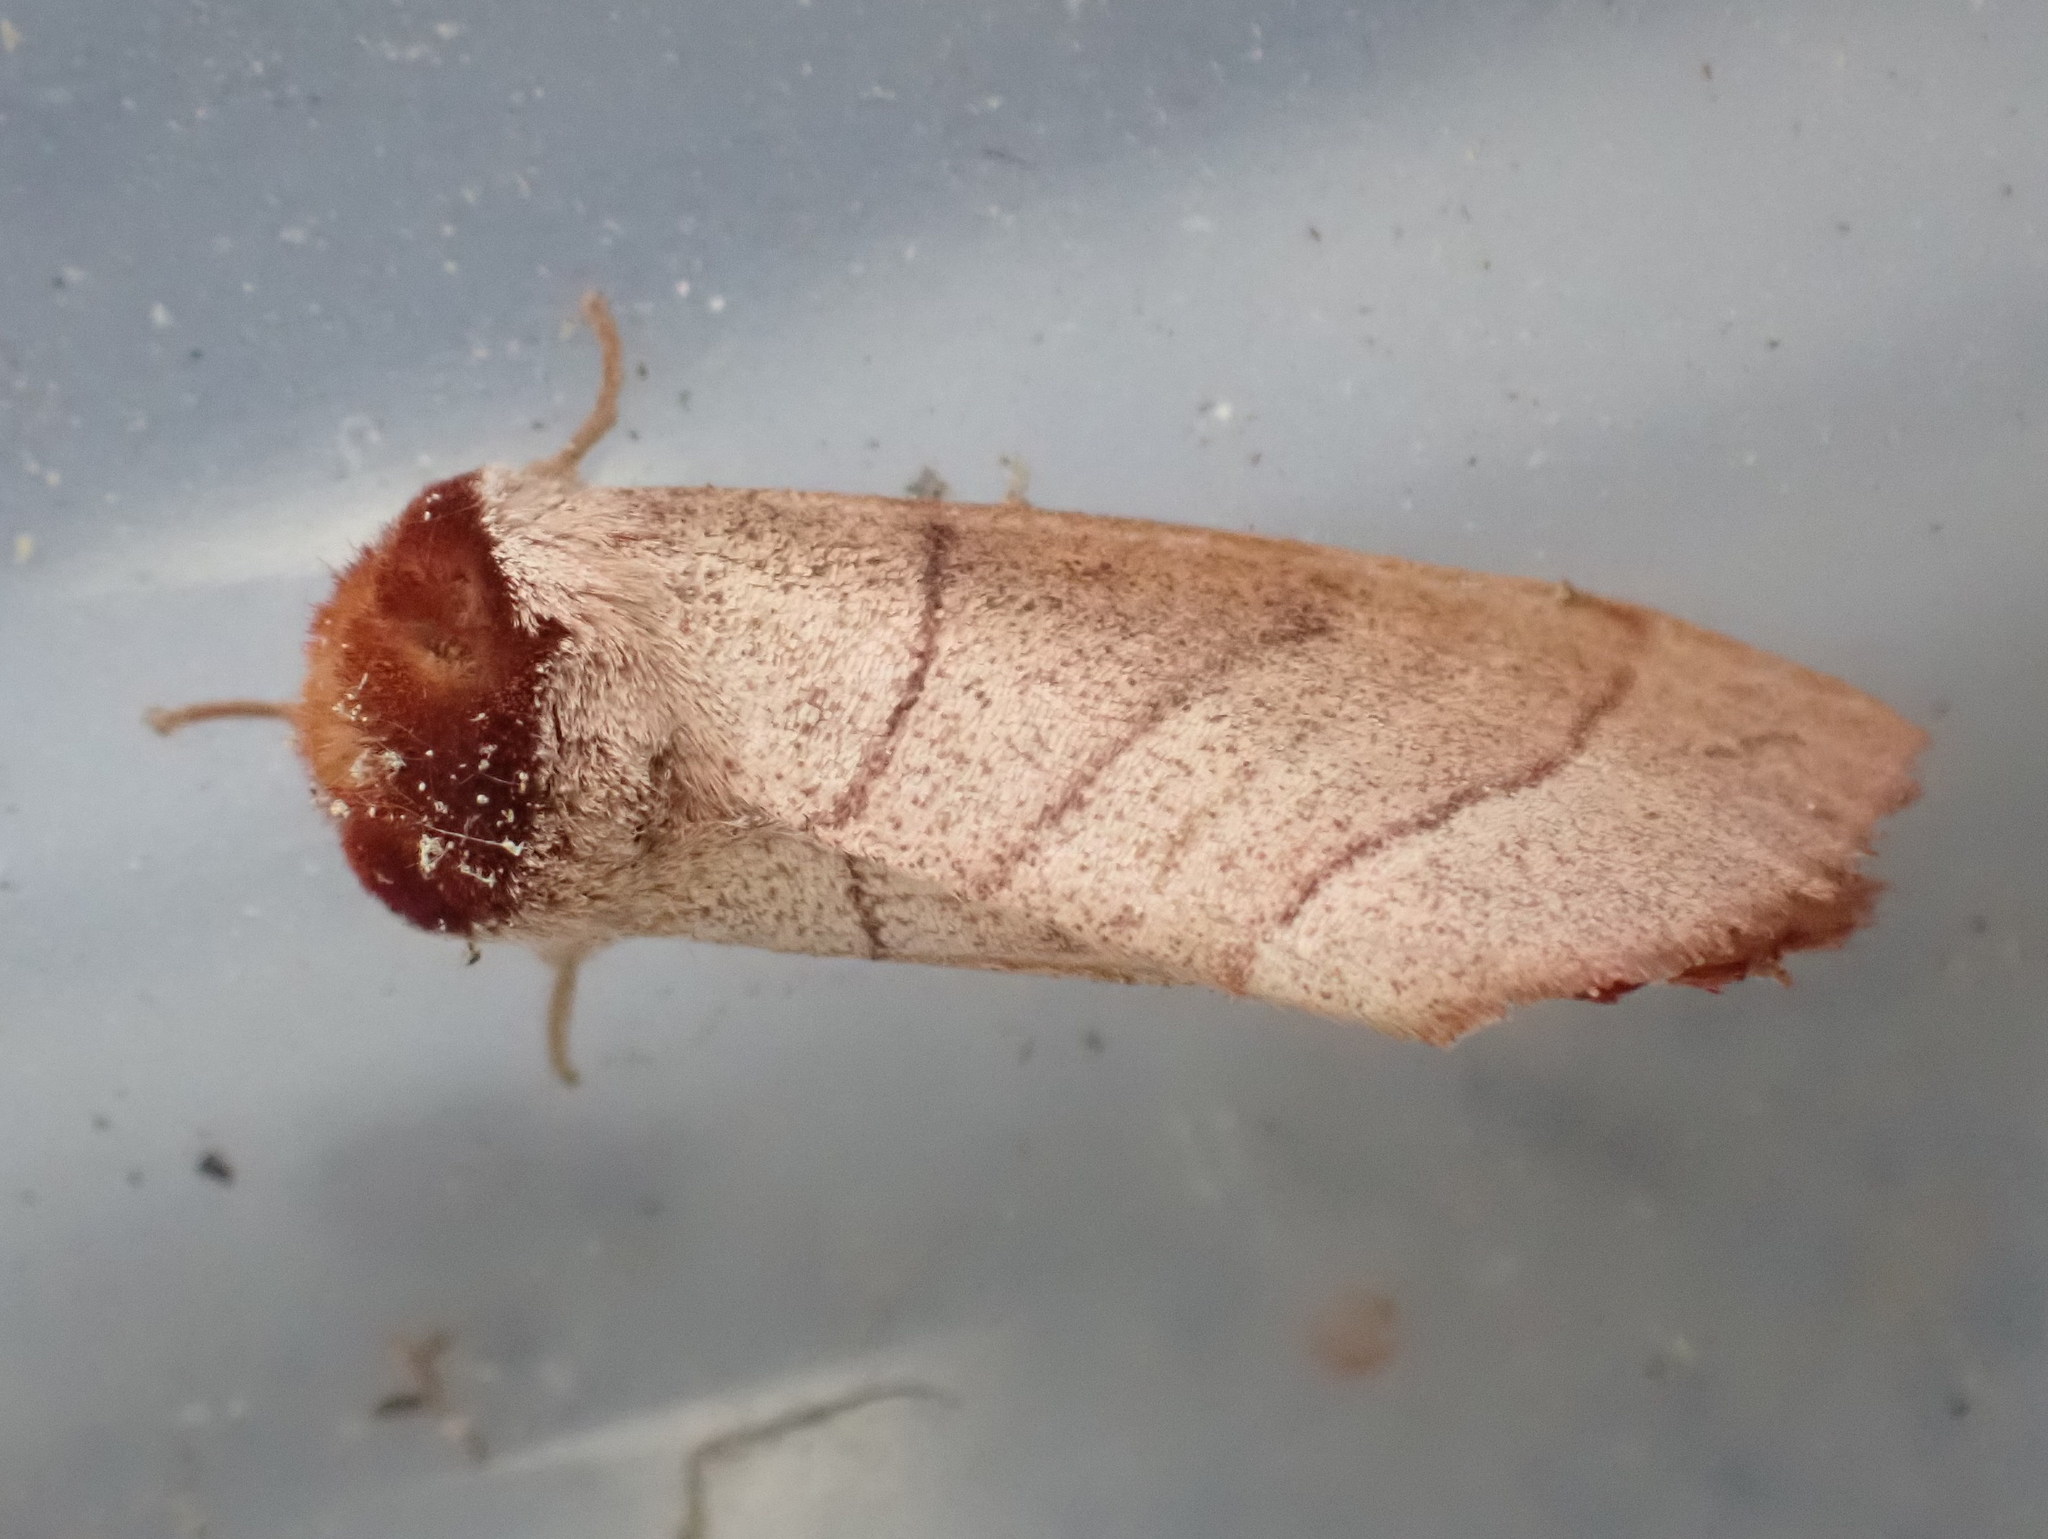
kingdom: Animalia
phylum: Arthropoda
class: Insecta
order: Lepidoptera
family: Notodontidae
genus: Datana
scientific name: Datana ministra
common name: Yellow-necked caterpillar moth
